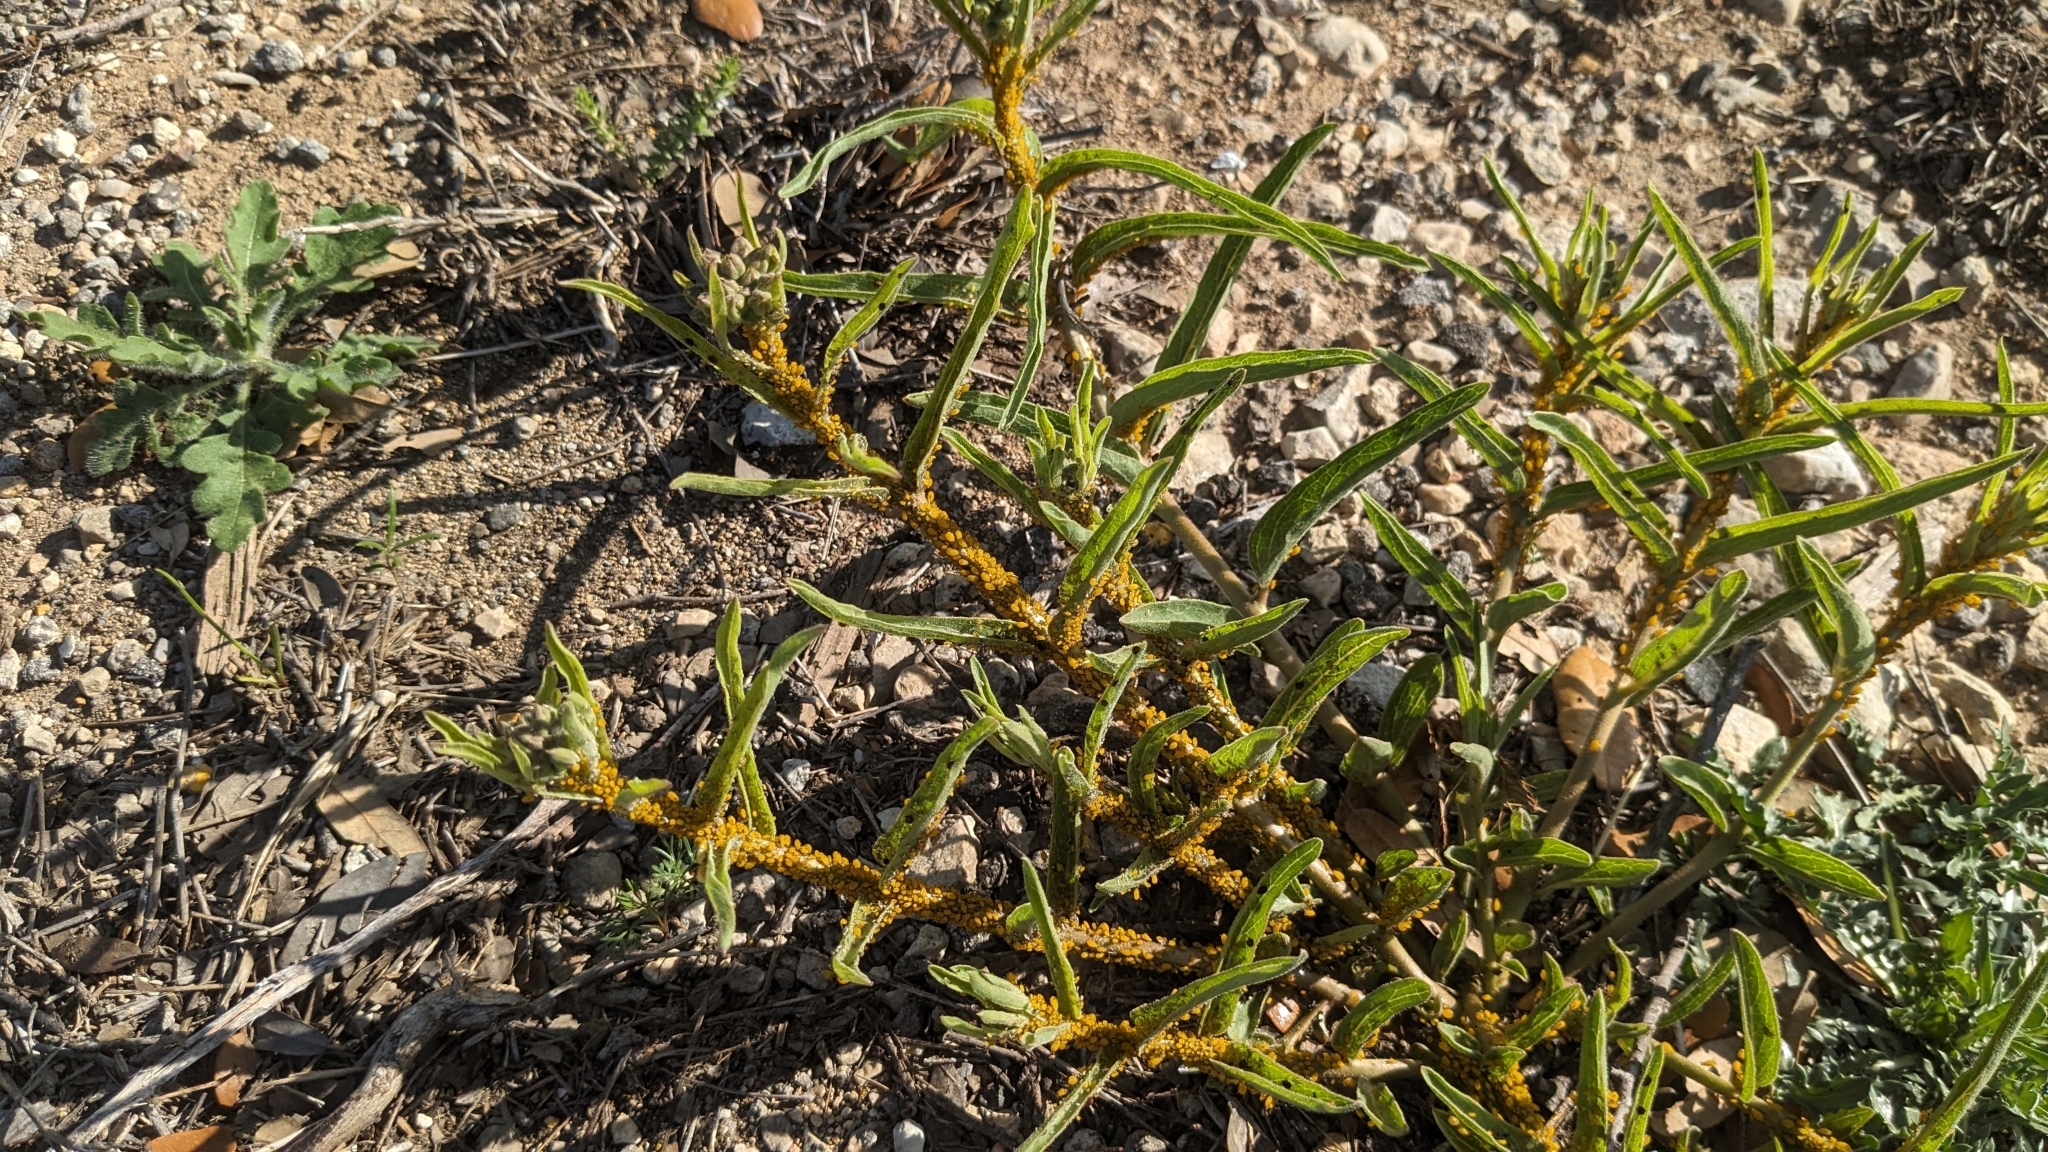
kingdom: Animalia
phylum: Arthropoda
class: Insecta
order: Hemiptera
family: Aphididae
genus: Aphis
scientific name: Aphis nerii
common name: Oleander aphid
